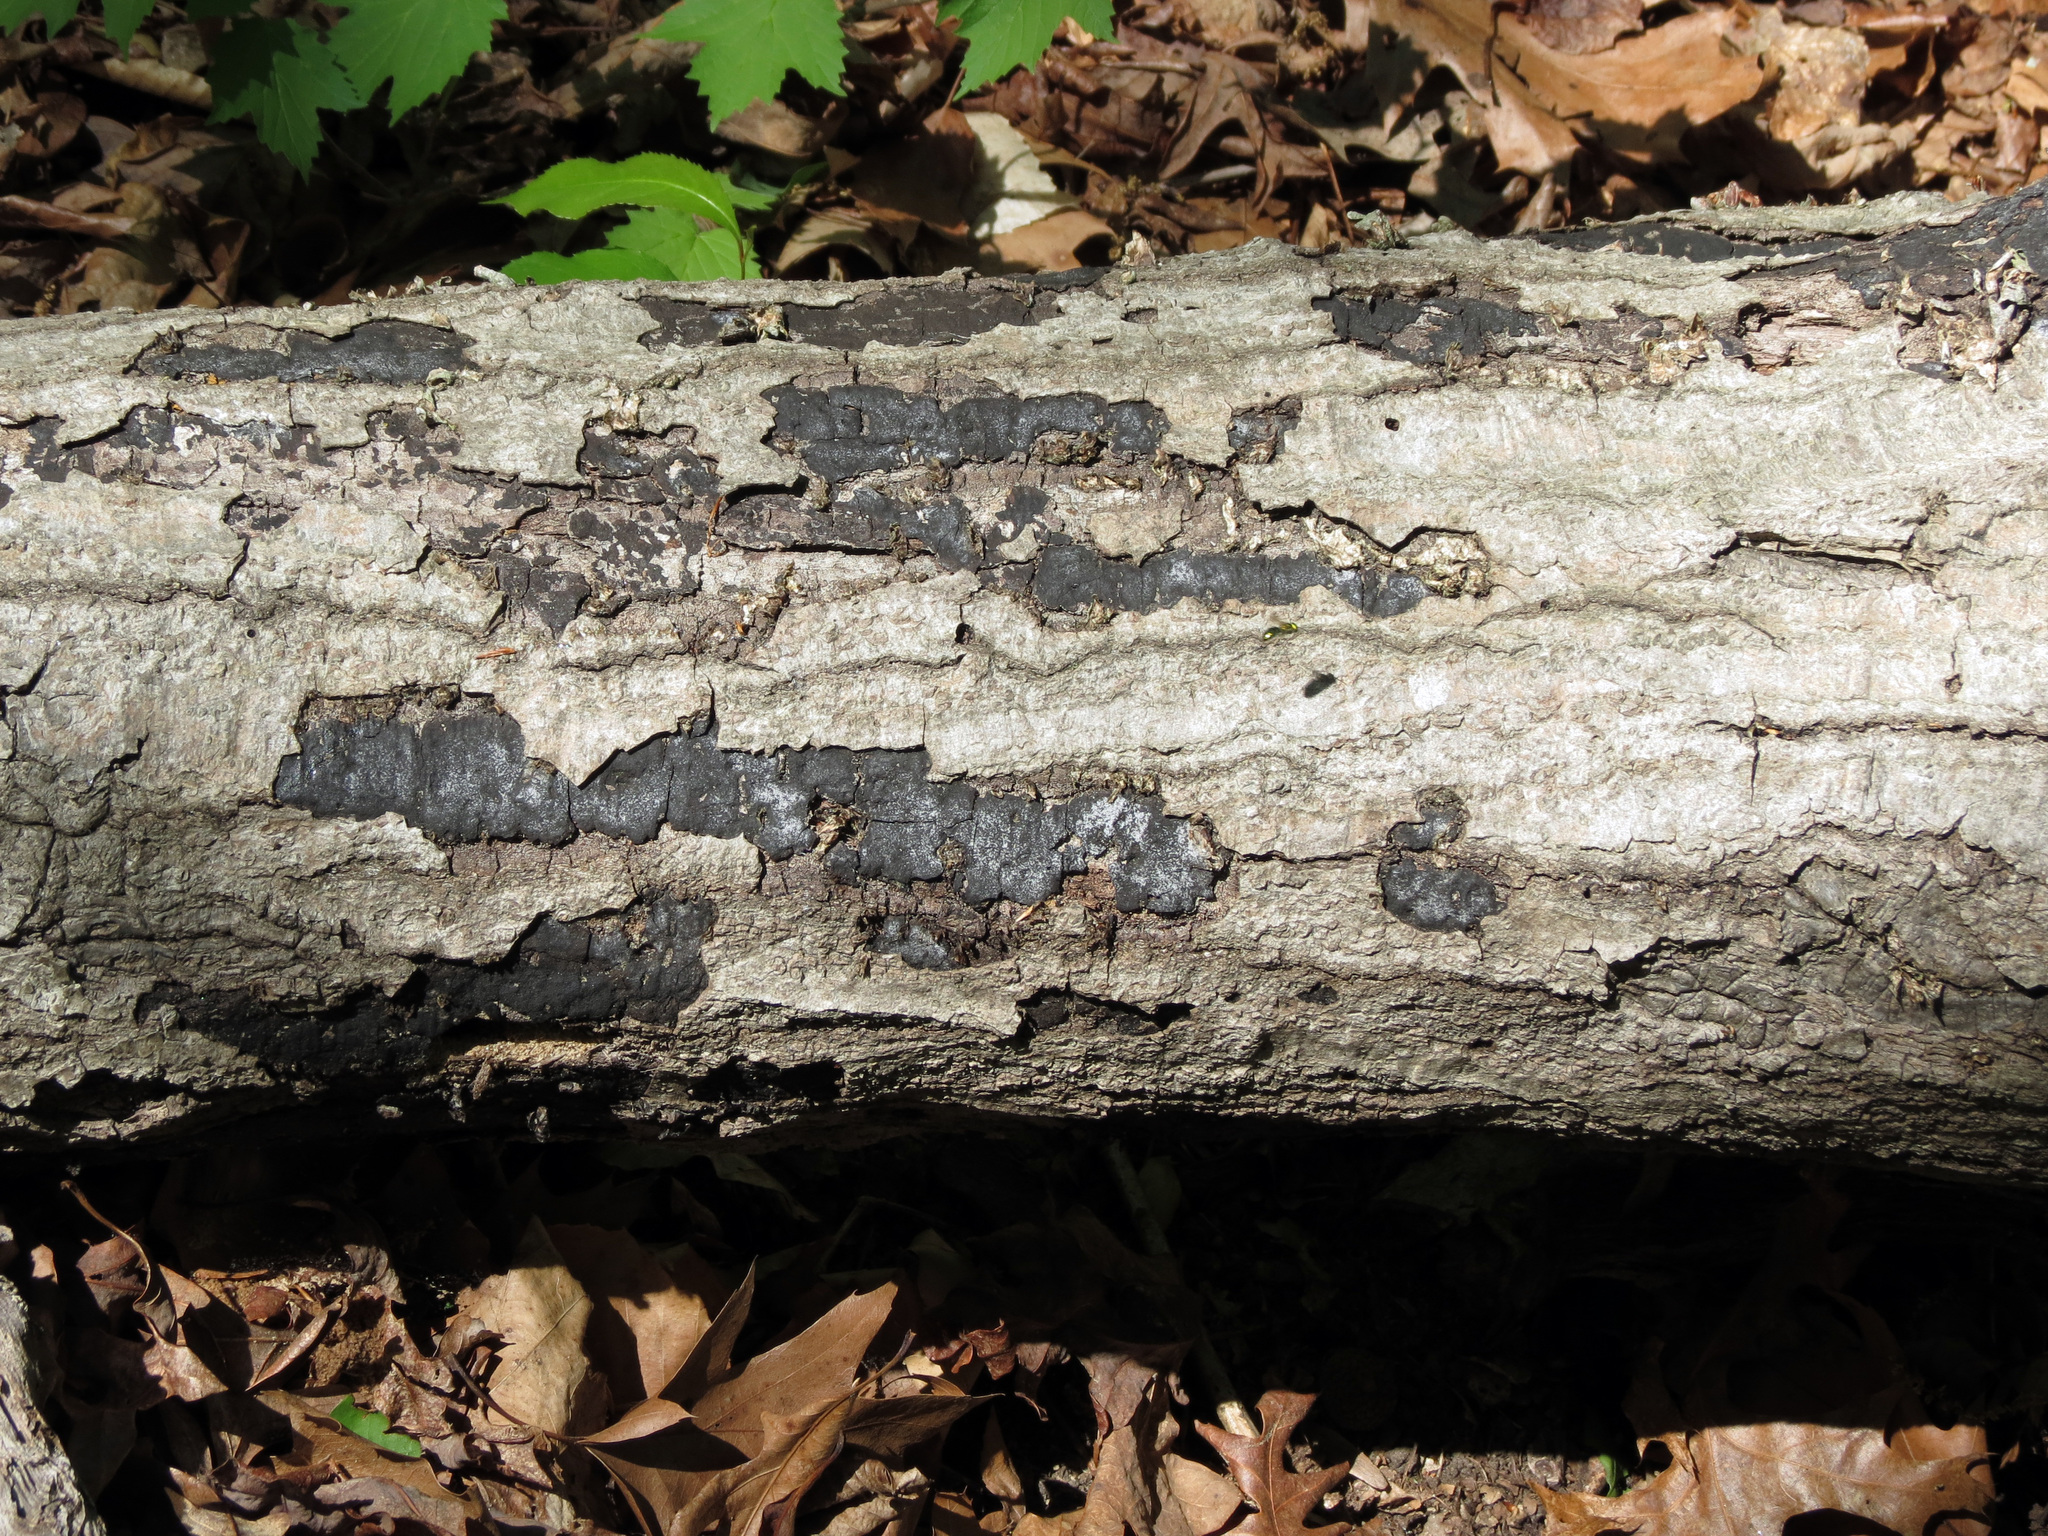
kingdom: Fungi
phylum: Ascomycota
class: Sordariomycetes
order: Xylariales
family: Graphostromataceae
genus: Biscogniauxia
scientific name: Biscogniauxia atropunctata
